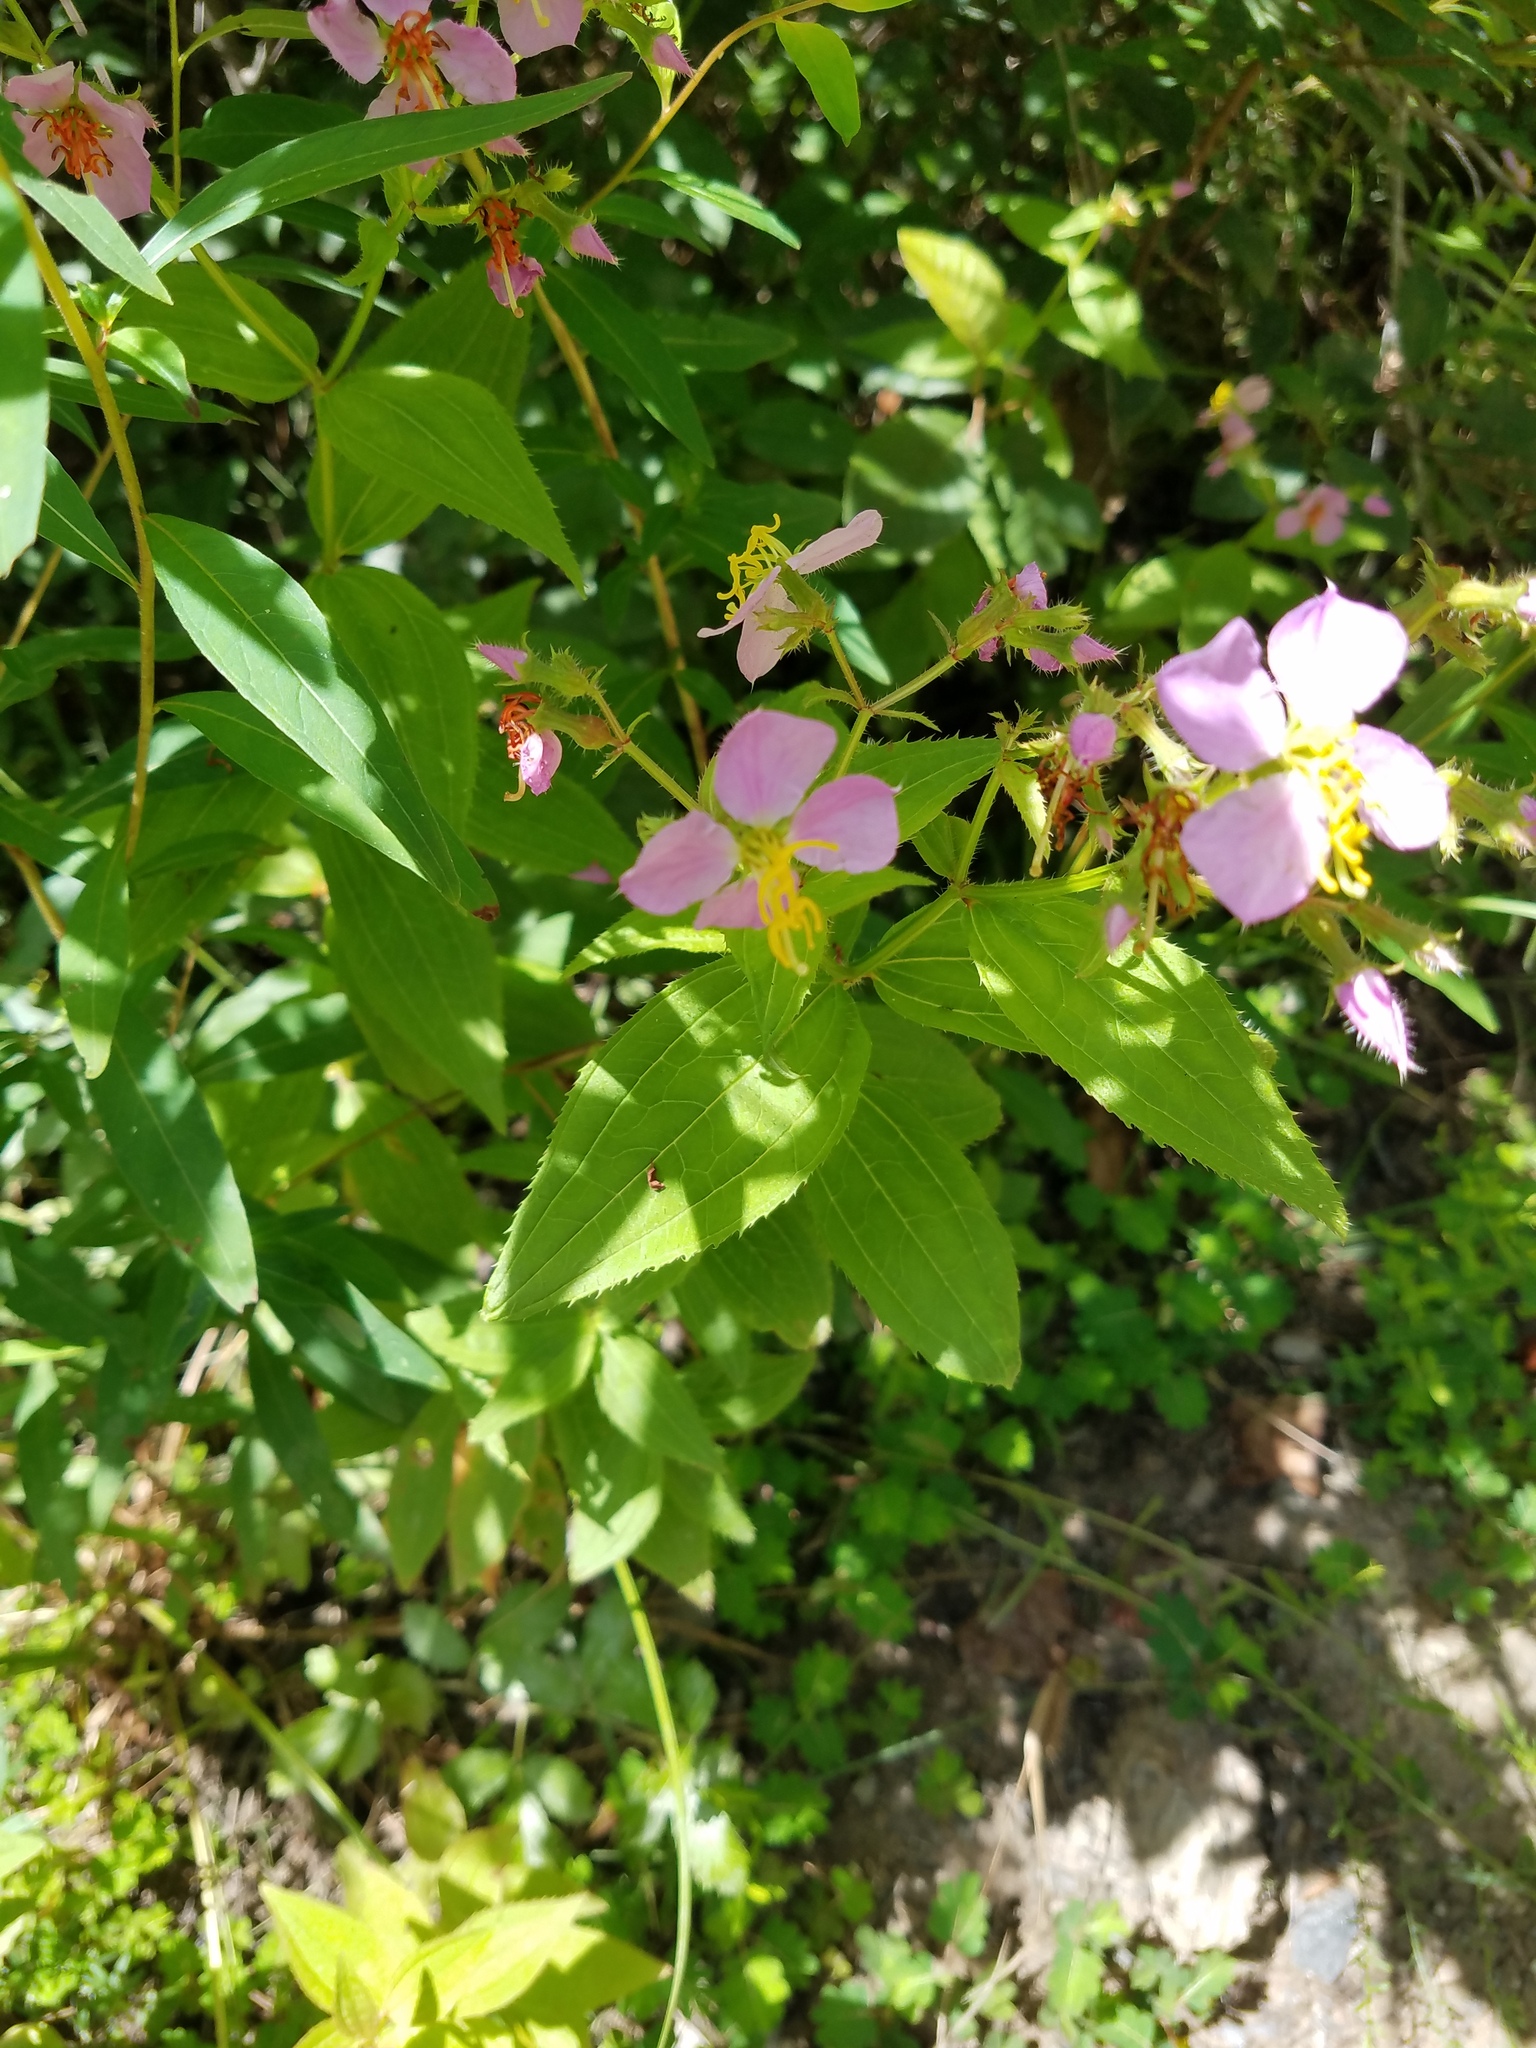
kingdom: Plantae
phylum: Tracheophyta
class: Magnoliopsida
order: Myrtales
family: Melastomataceae
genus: Rhexia
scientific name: Rhexia virginica
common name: Common meadow beauty
